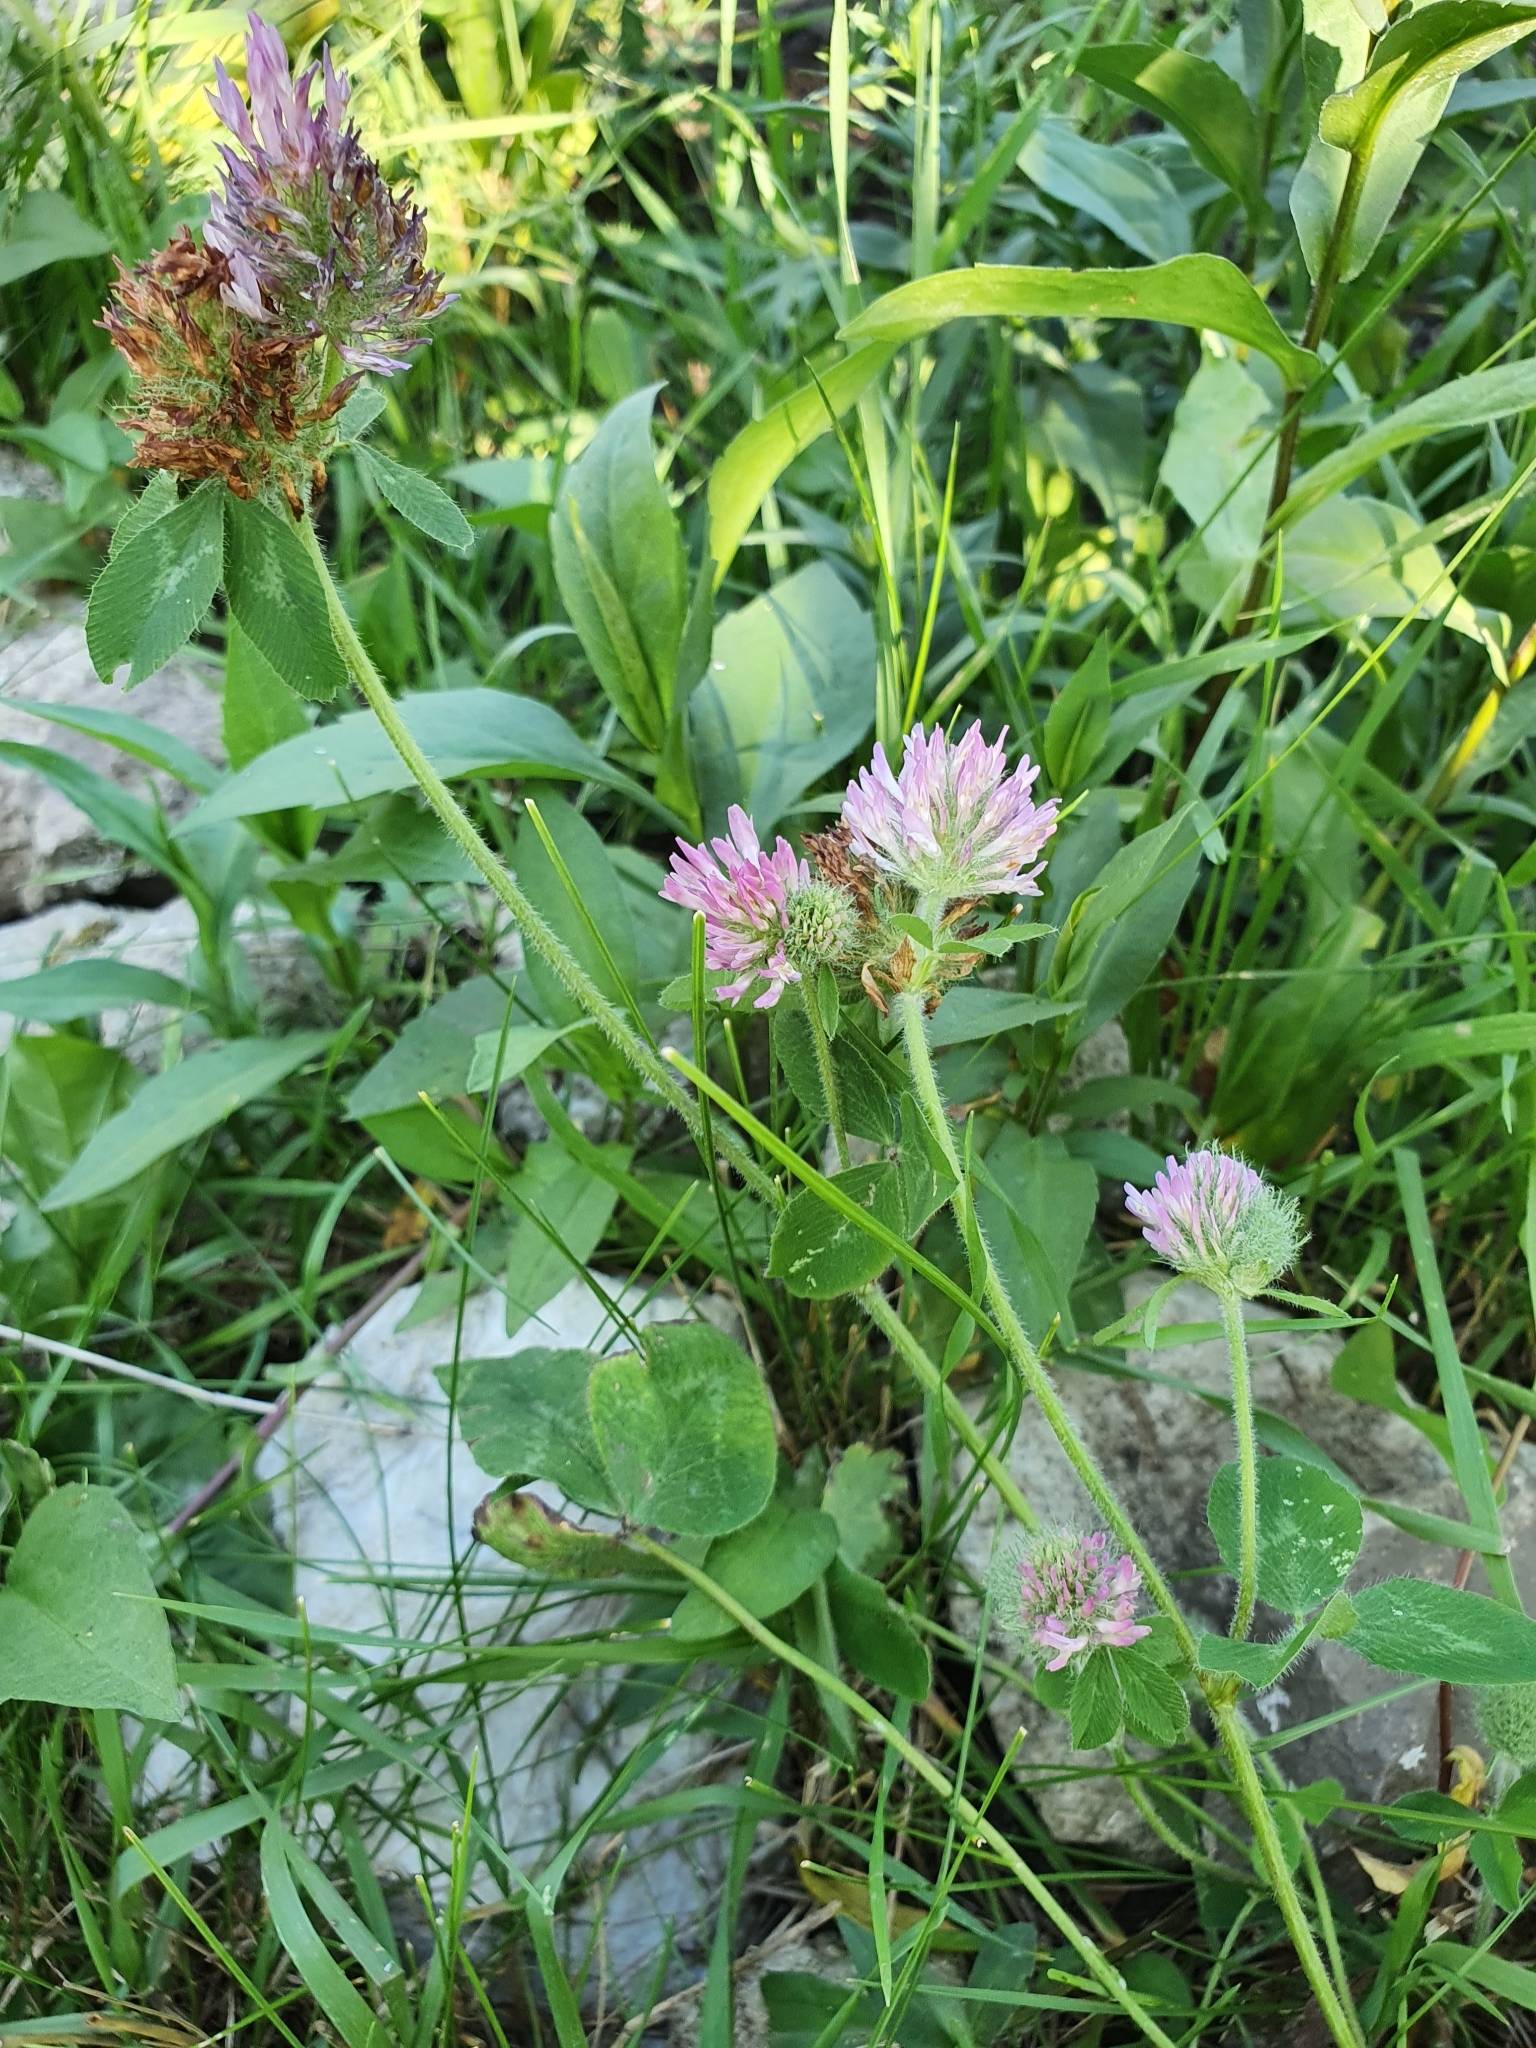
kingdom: Plantae
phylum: Tracheophyta
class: Magnoliopsida
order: Fabales
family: Fabaceae
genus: Trifolium
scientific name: Trifolium pratense
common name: Red clover
